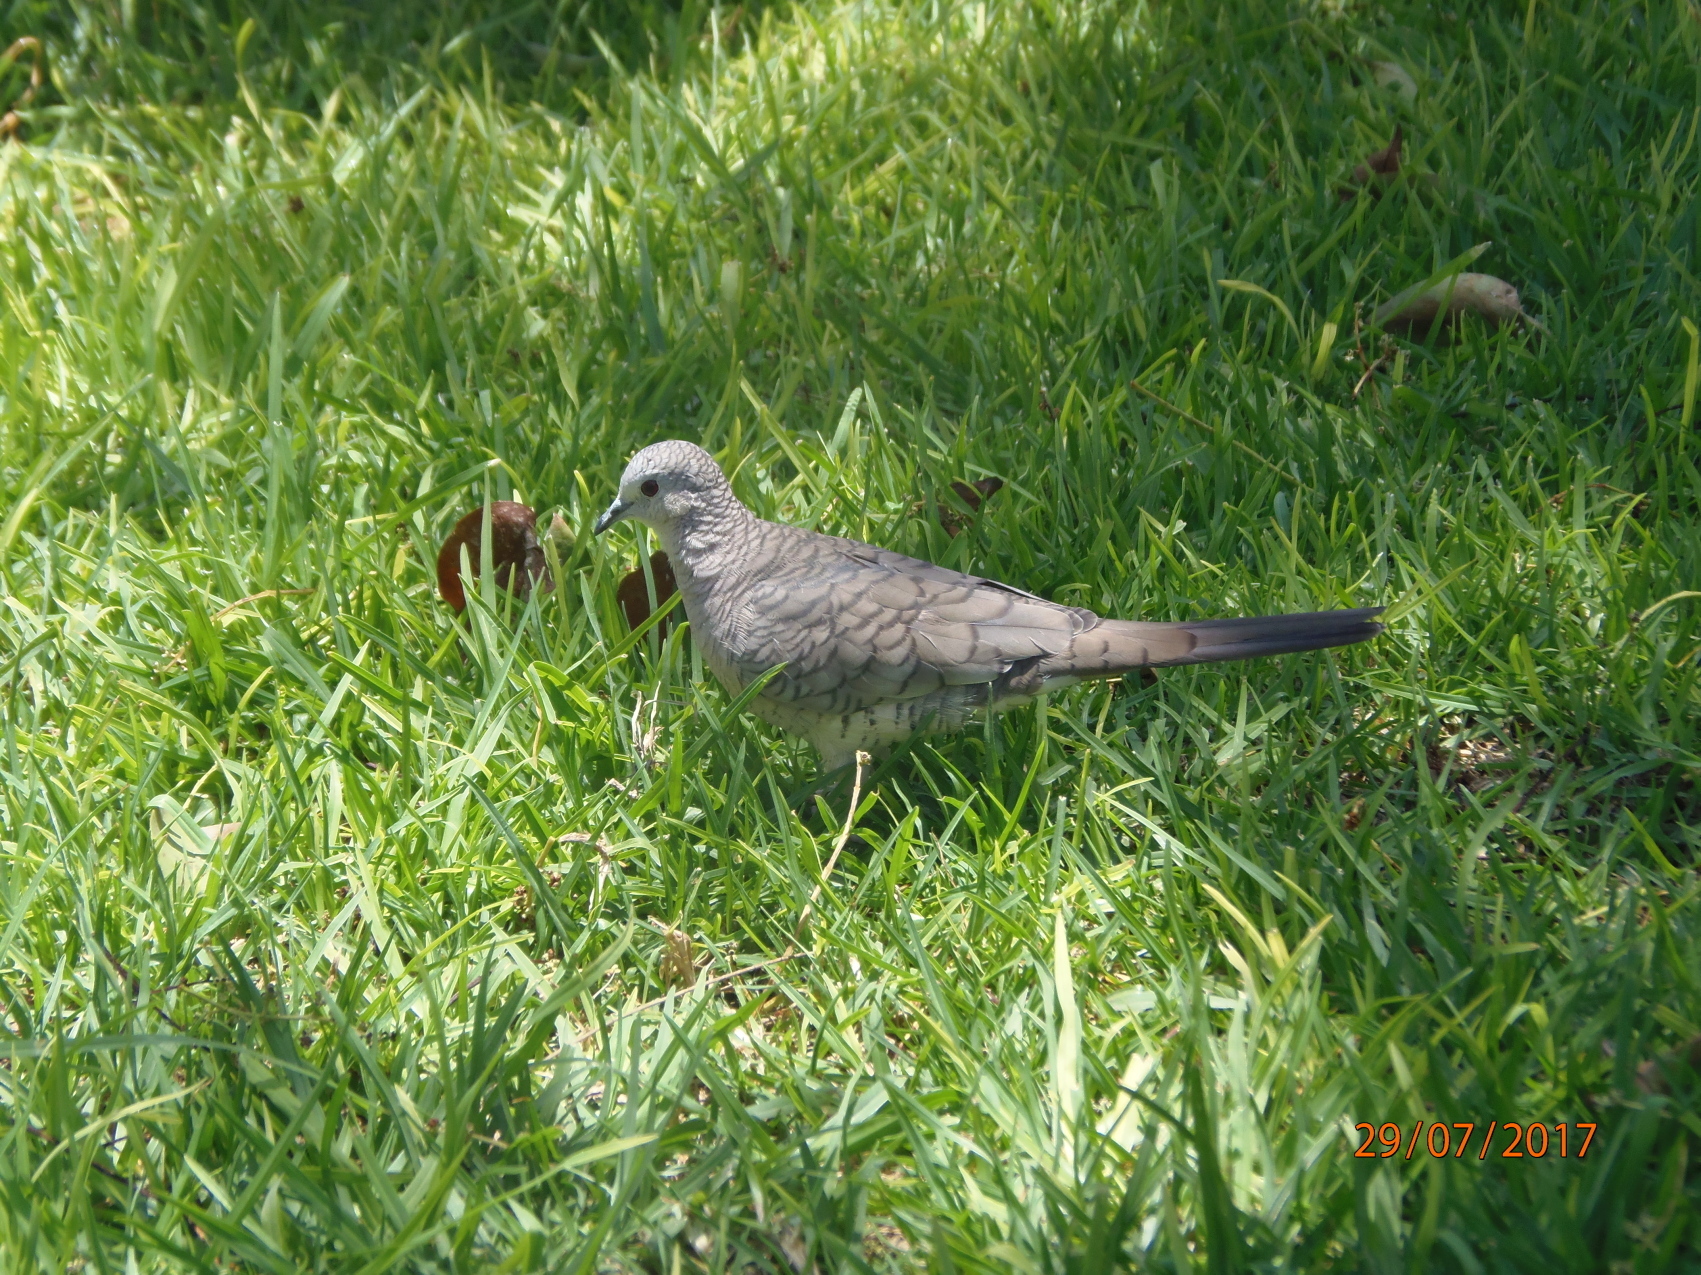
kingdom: Animalia
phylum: Chordata
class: Aves
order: Columbiformes
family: Columbidae
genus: Columbina
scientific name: Columbina inca
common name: Inca dove
